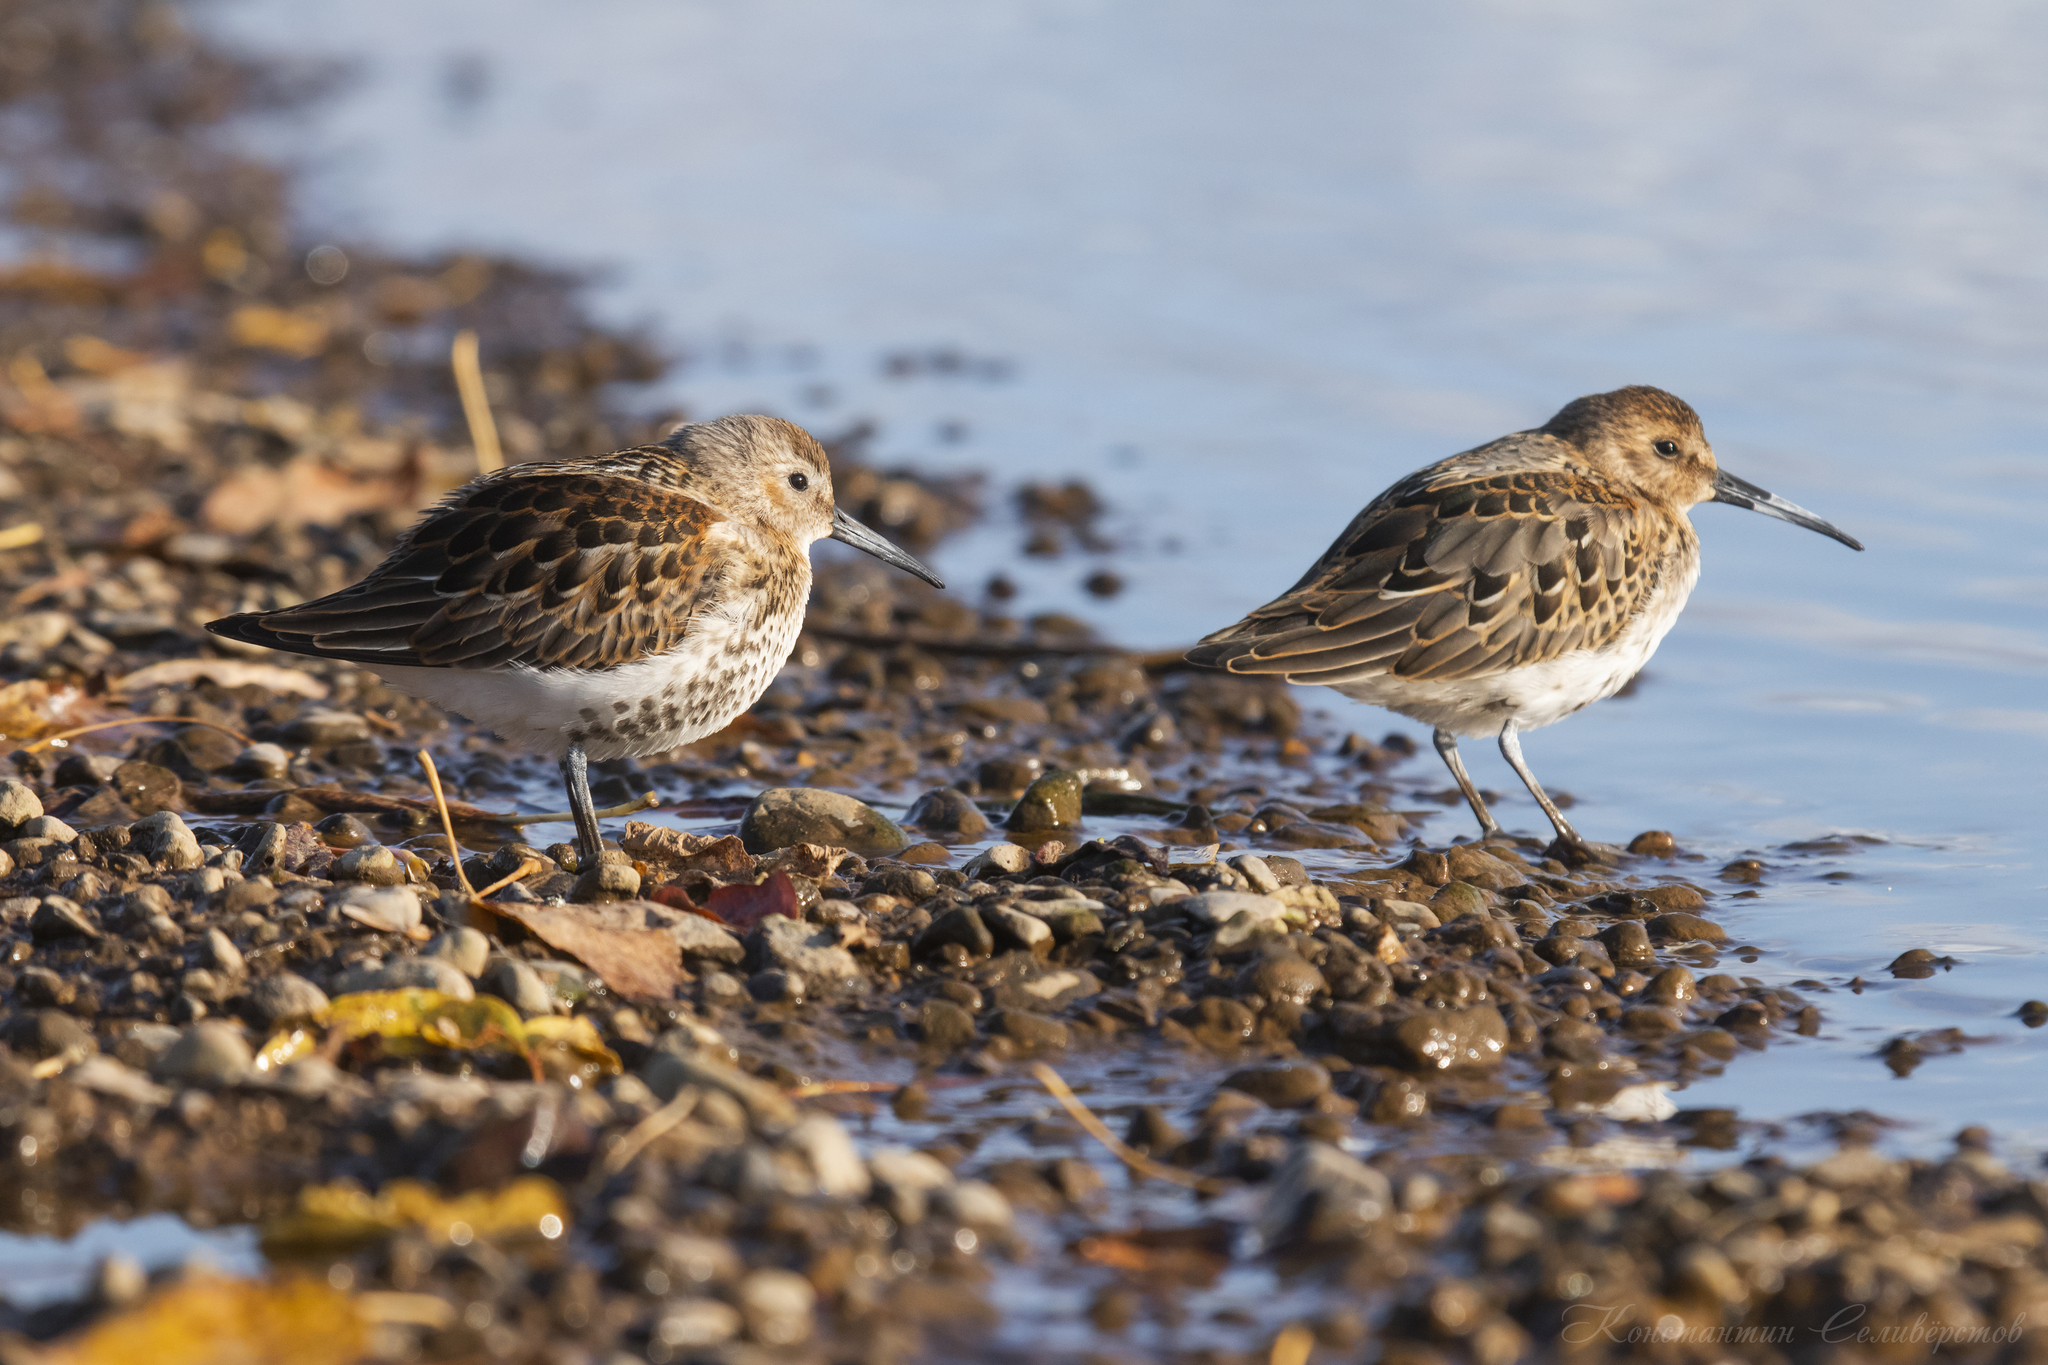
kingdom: Animalia
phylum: Chordata
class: Aves
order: Charadriiformes
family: Scolopacidae
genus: Calidris
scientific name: Calidris alpina
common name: Dunlin
